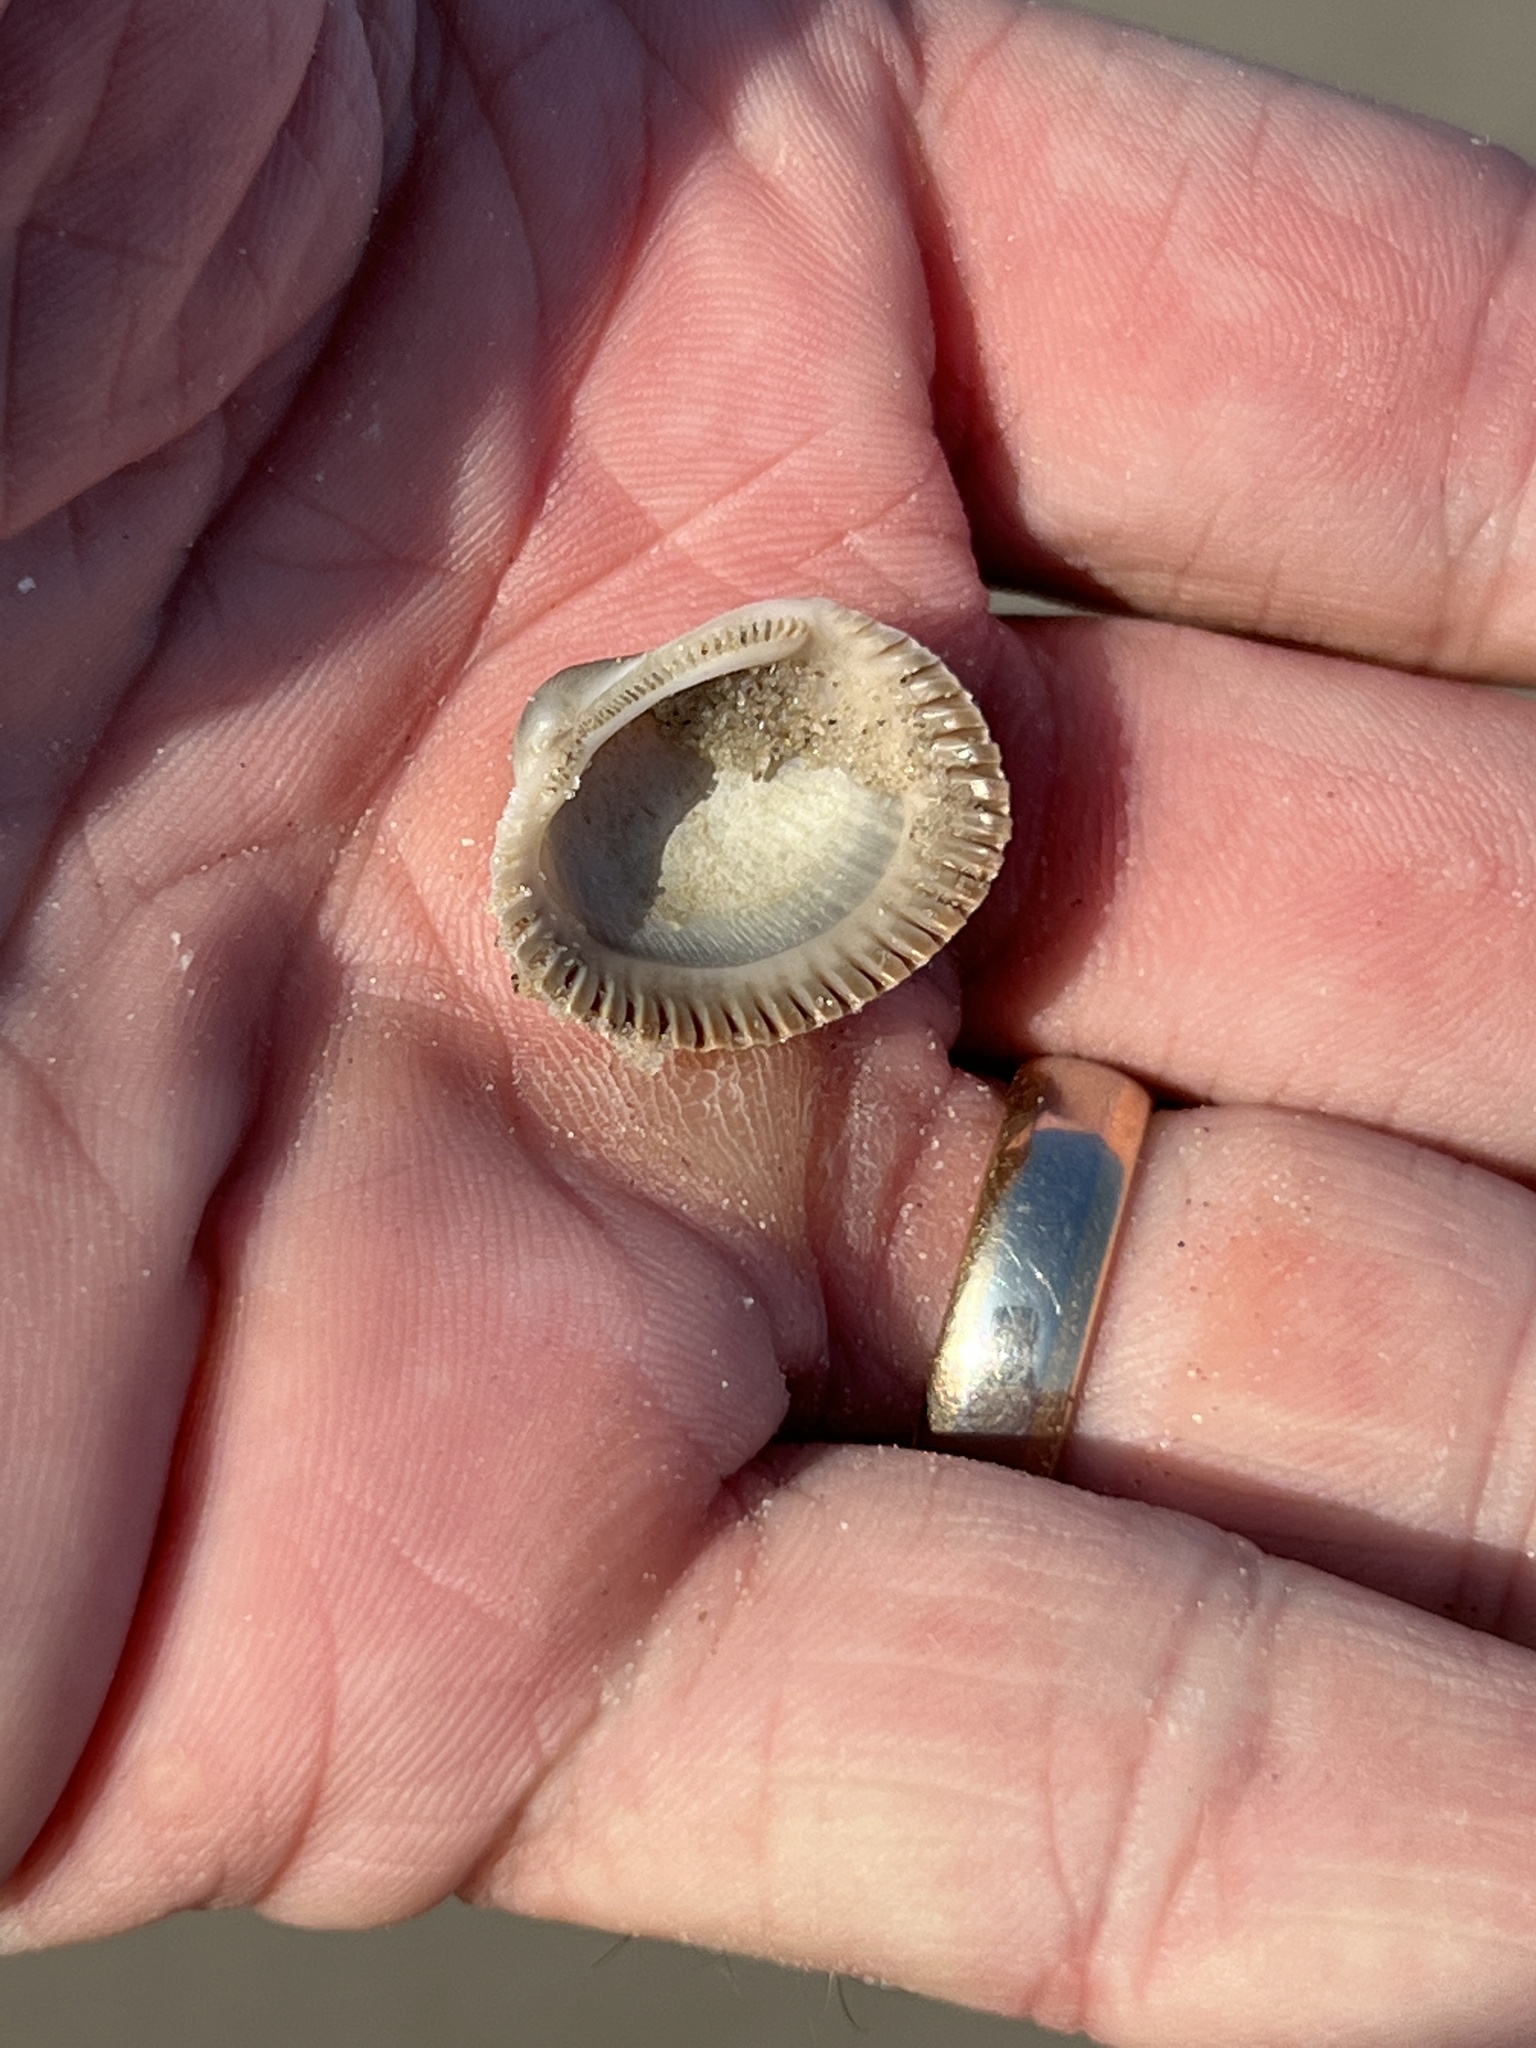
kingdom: Animalia
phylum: Mollusca
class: Bivalvia
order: Arcida
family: Arcidae
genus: Lunarca
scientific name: Lunarca ovalis
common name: Blood ark
